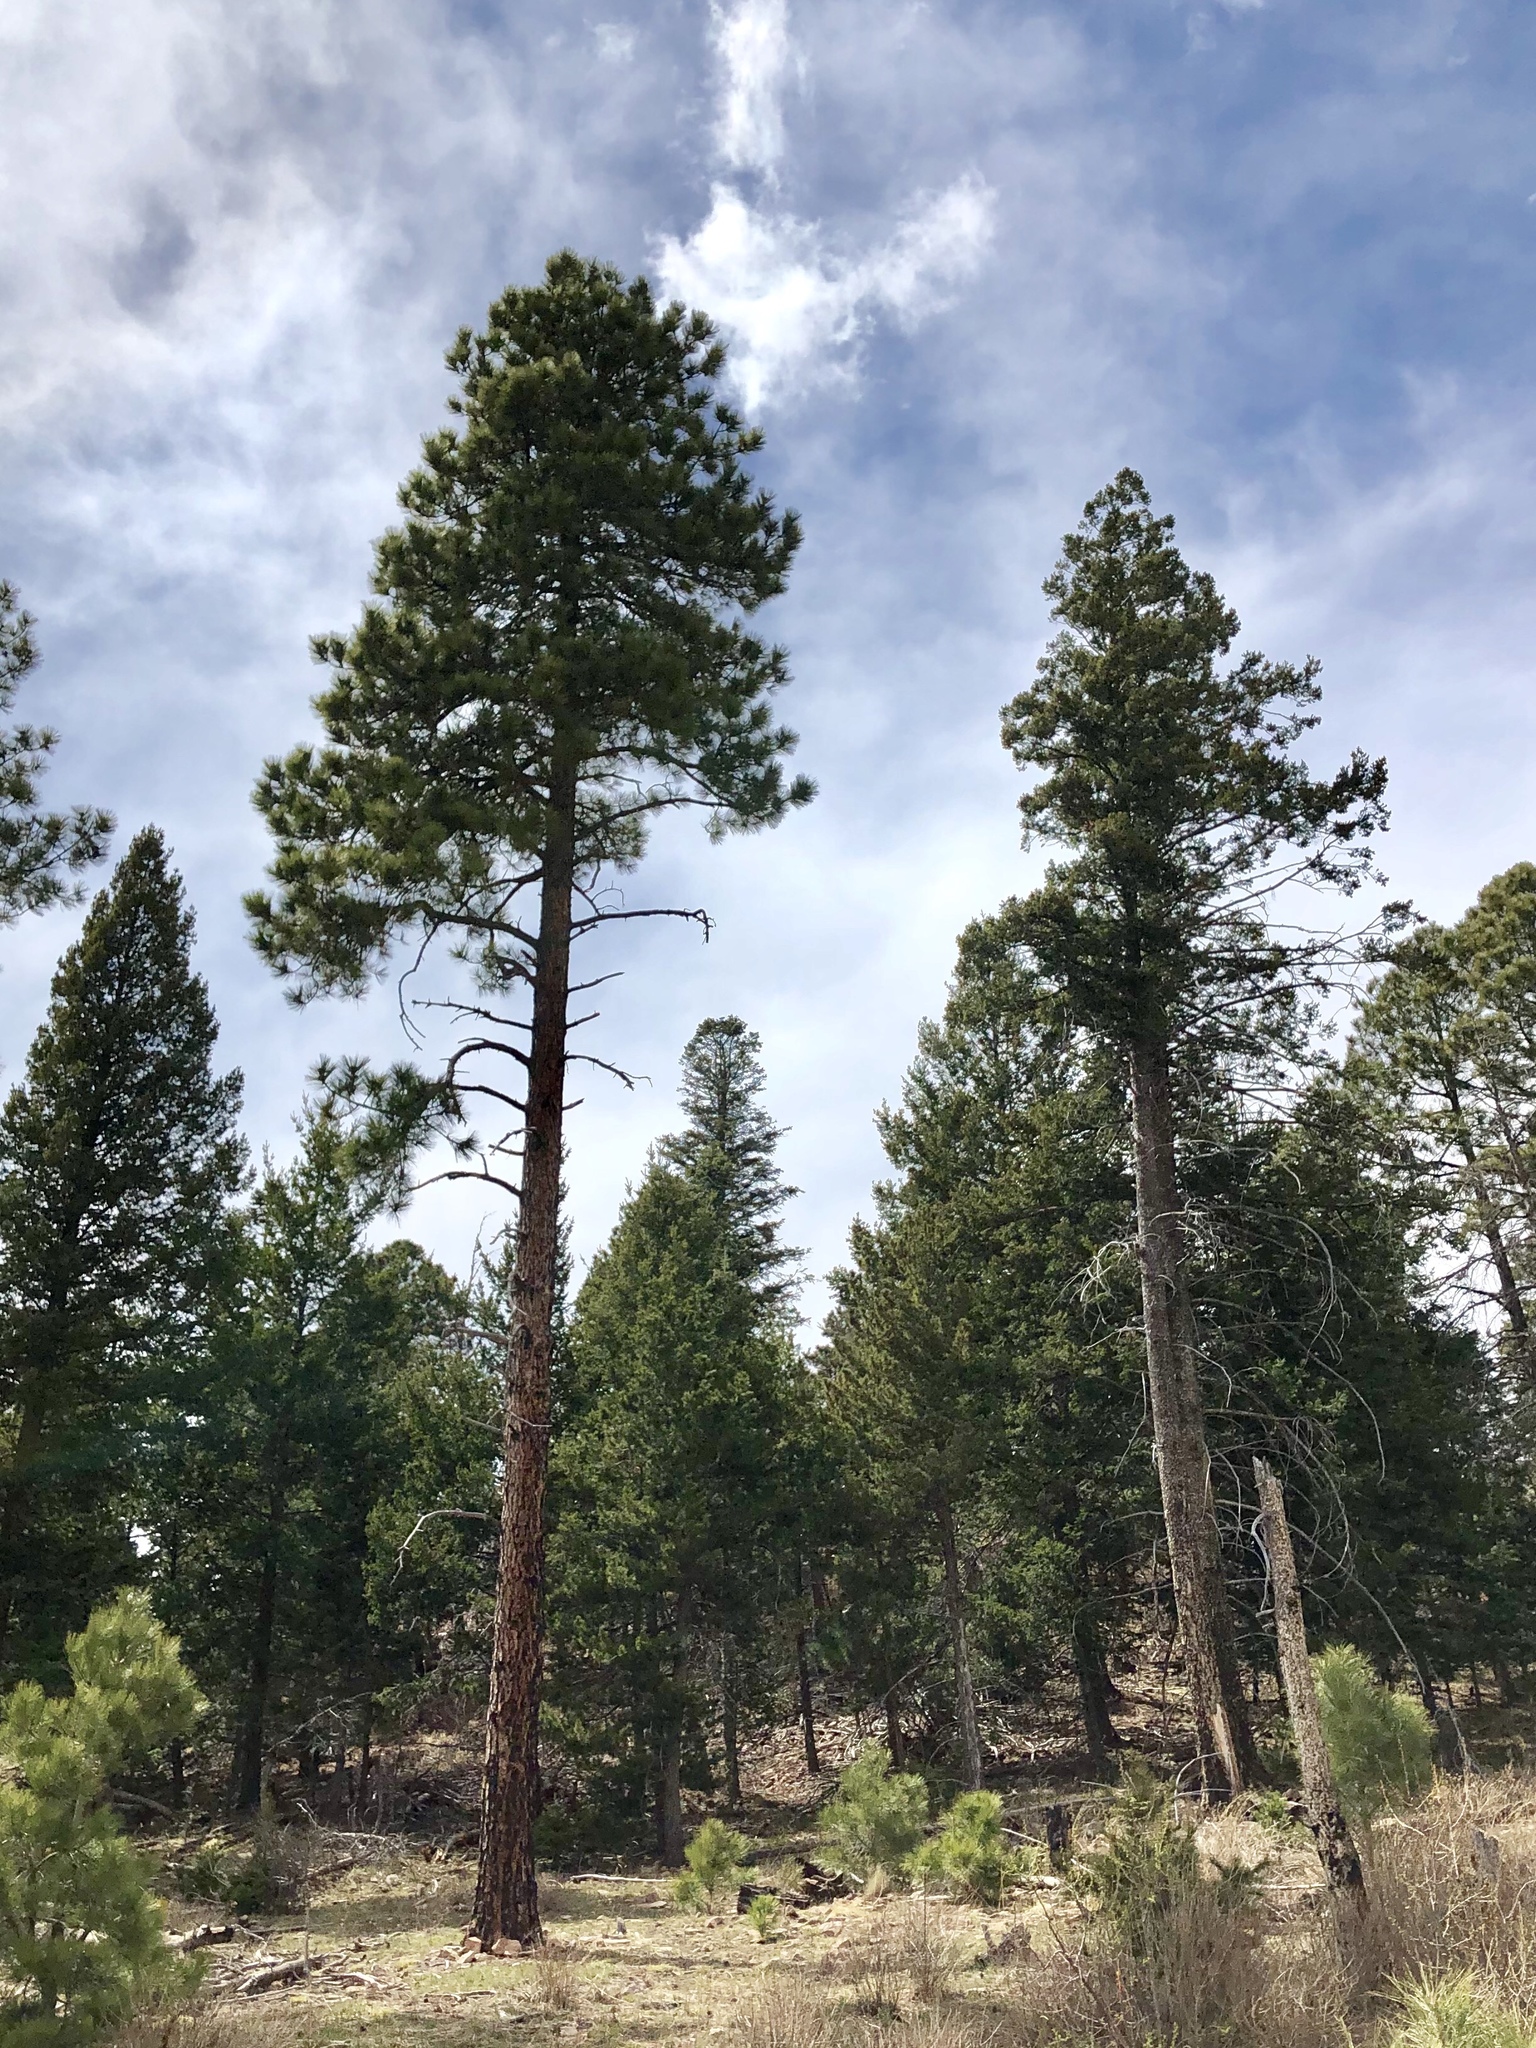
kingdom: Plantae
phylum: Tracheophyta
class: Pinopsida
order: Pinales
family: Pinaceae
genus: Pinus
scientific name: Pinus ponderosa
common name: Western yellow-pine
